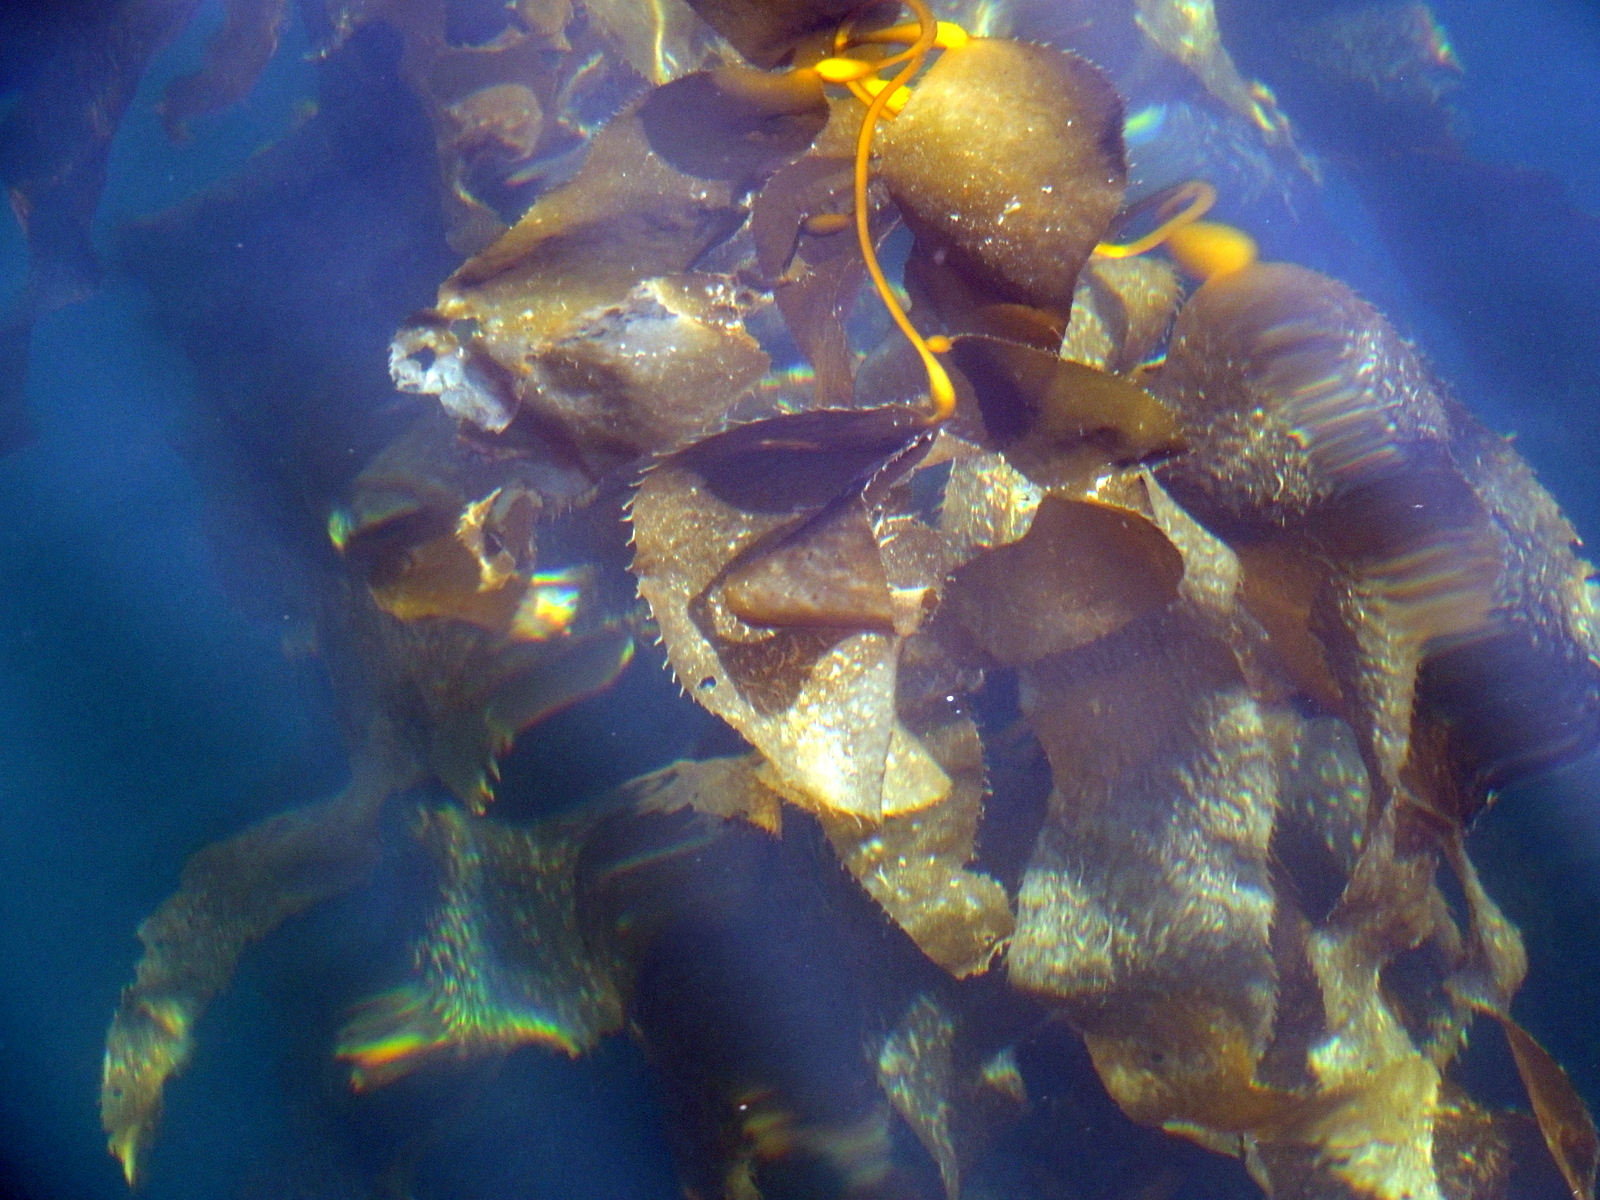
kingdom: Chromista
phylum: Ochrophyta
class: Phaeophyceae
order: Laminariales
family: Laminariaceae
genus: Macrocystis
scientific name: Macrocystis pyrifera
